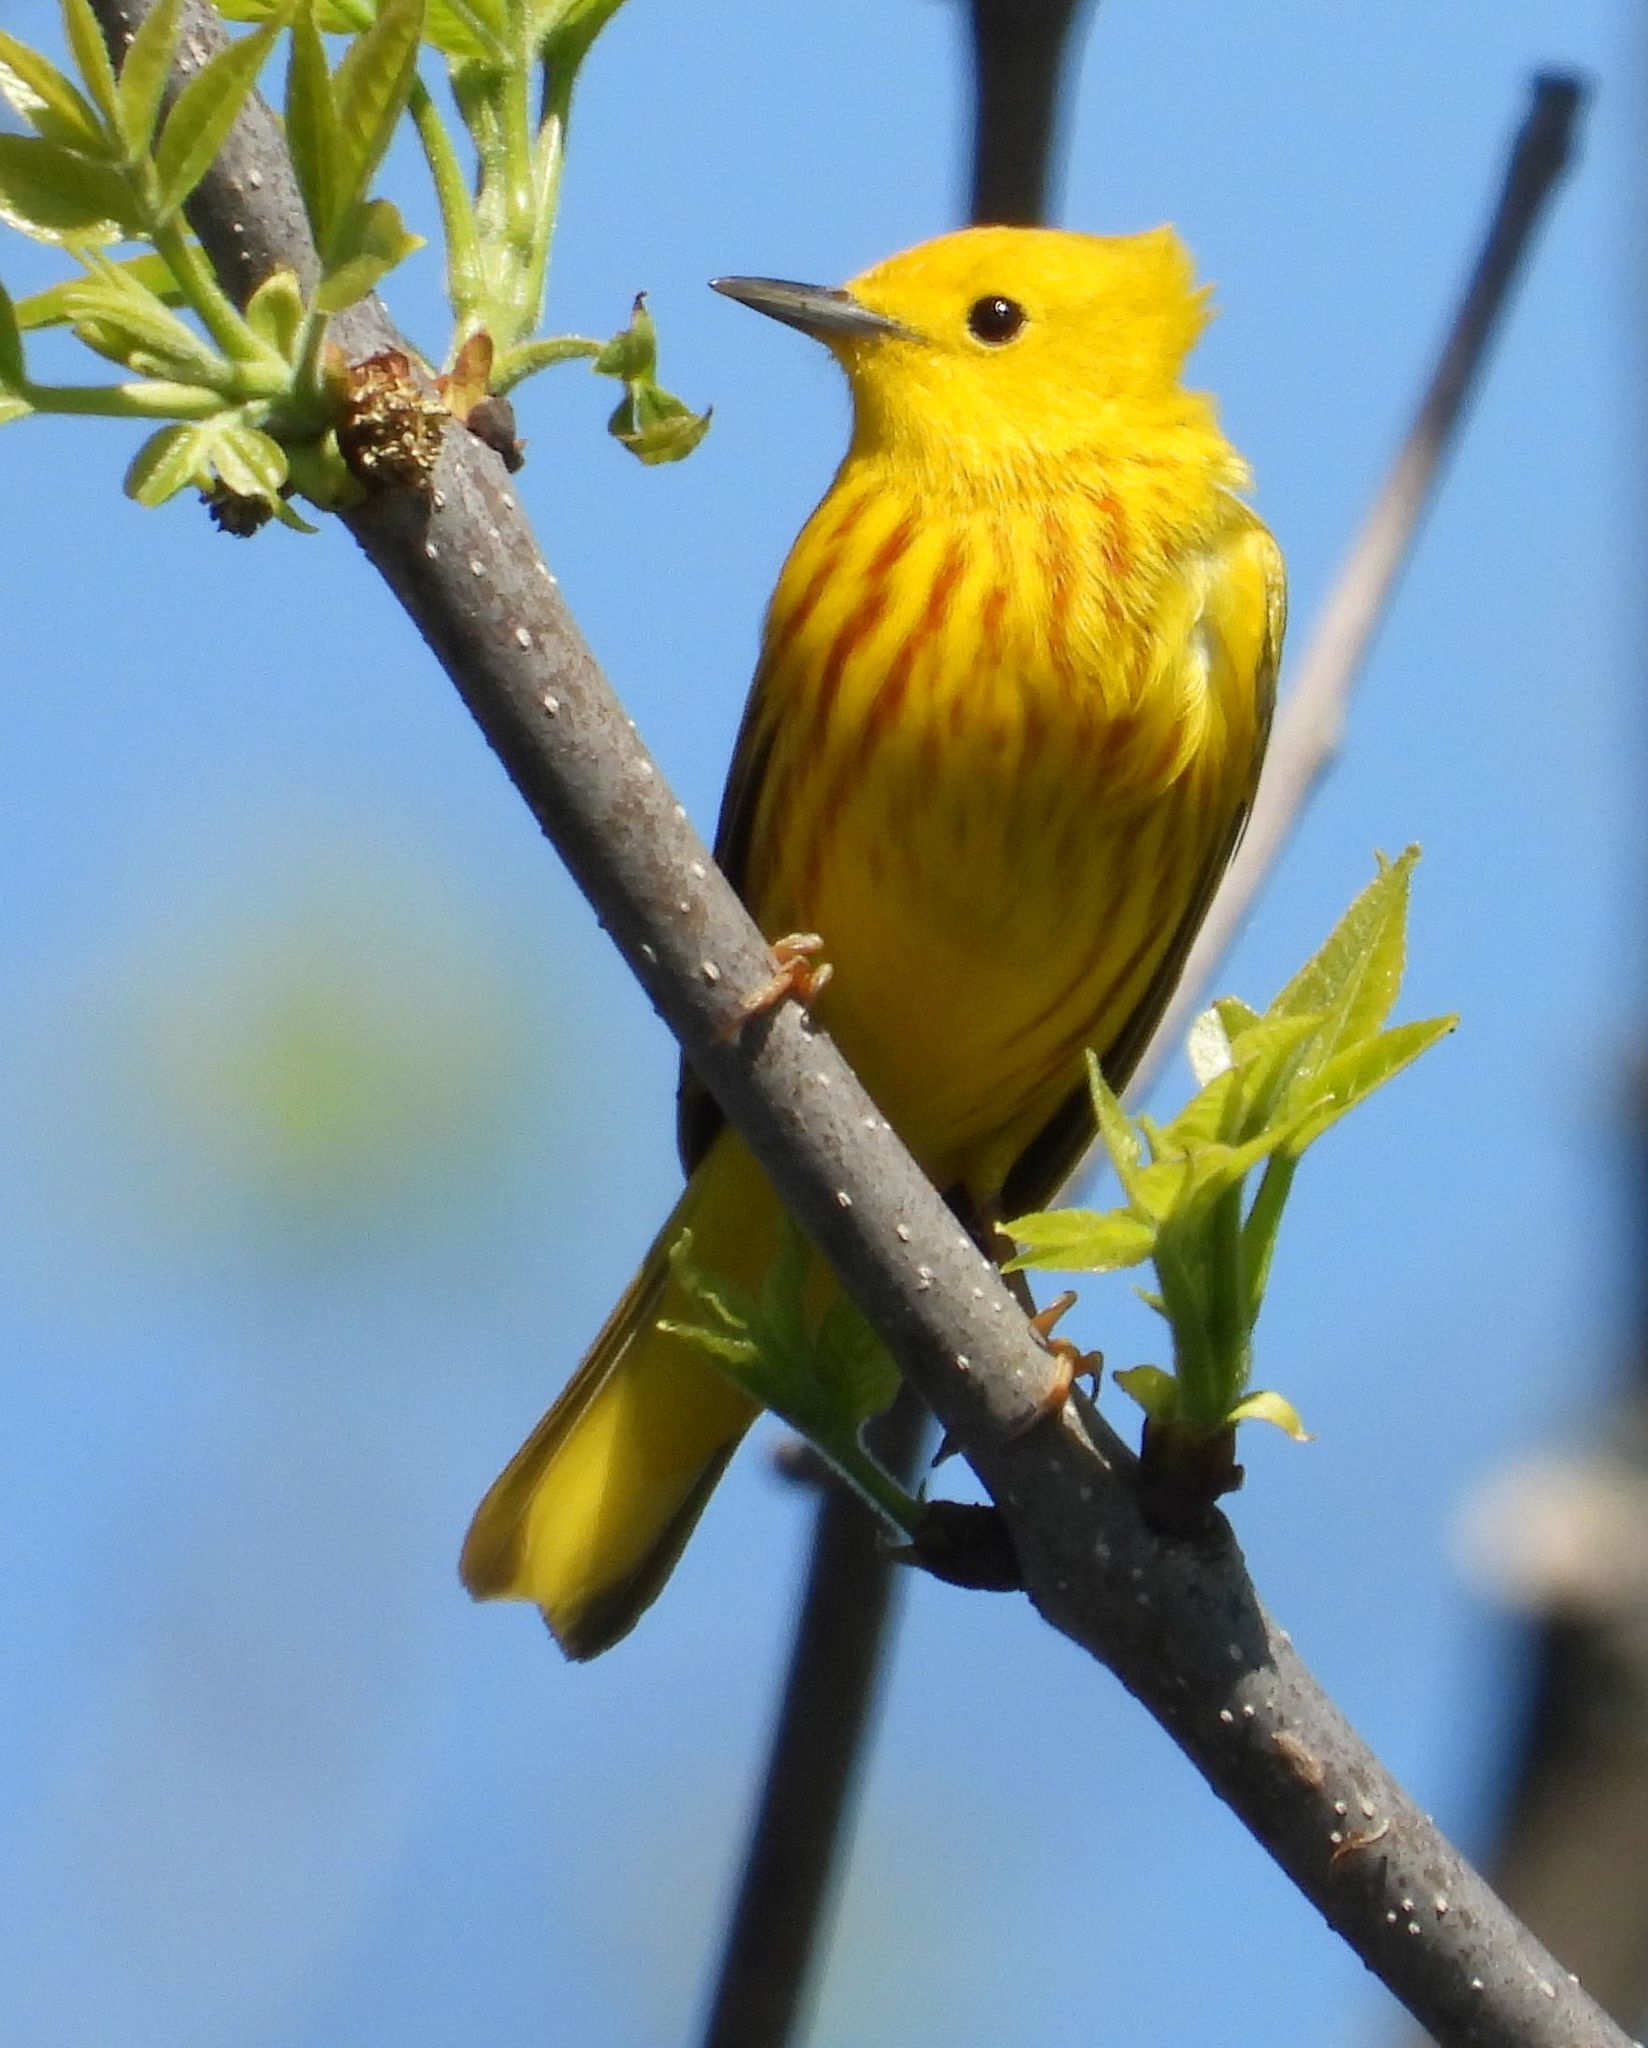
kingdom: Animalia
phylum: Chordata
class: Aves
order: Passeriformes
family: Parulidae
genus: Setophaga
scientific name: Setophaga petechia
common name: Yellow warbler
